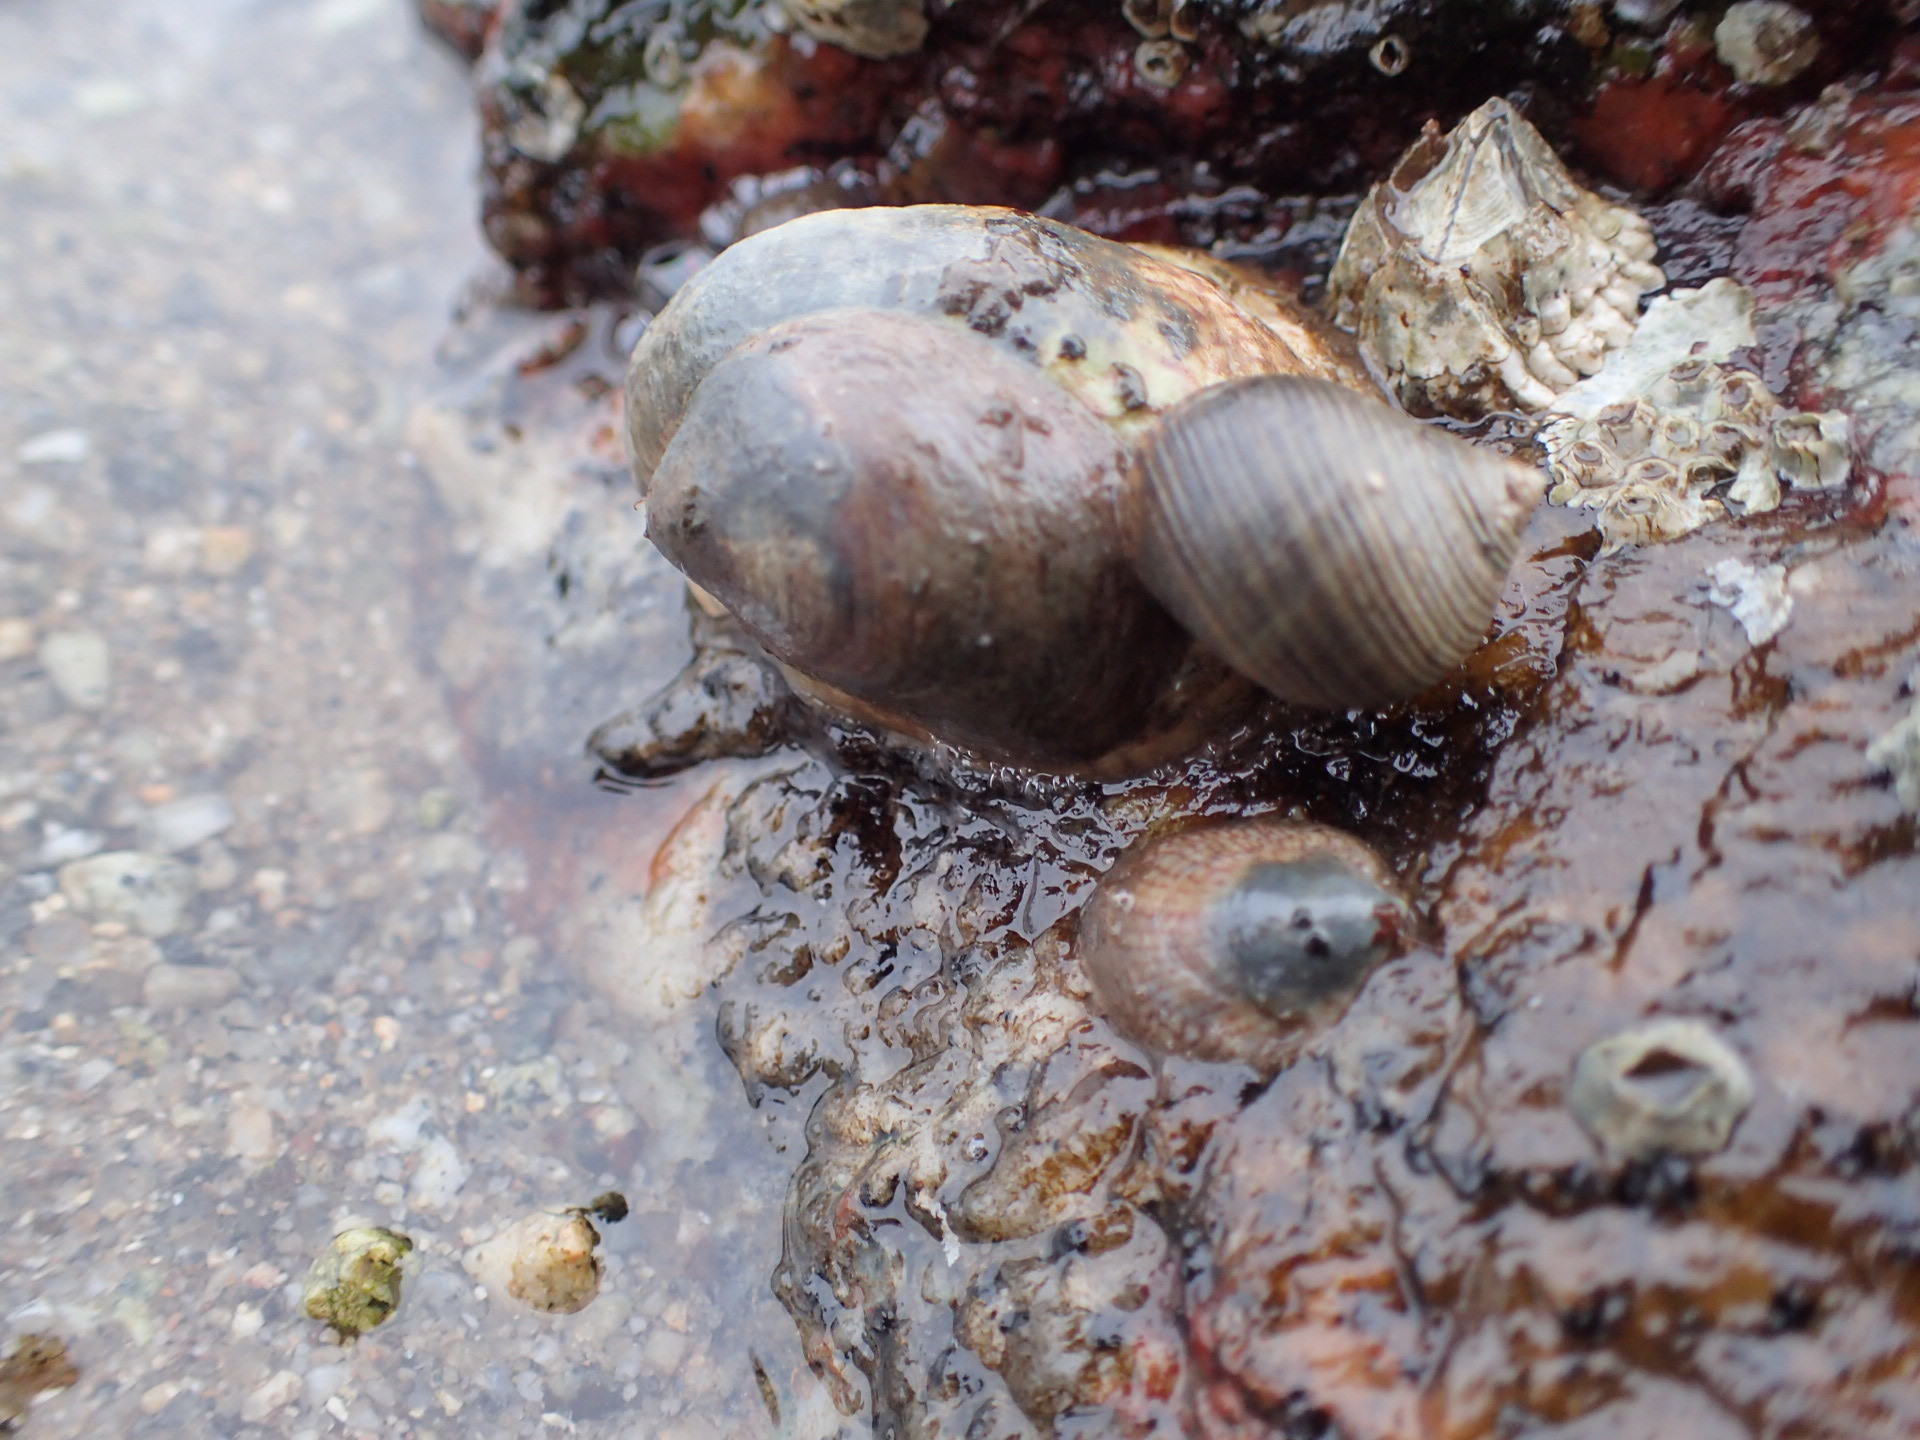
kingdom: Animalia
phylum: Mollusca
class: Gastropoda
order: Littorinimorpha
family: Calyptraeidae
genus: Crepidula
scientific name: Crepidula fornicata
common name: Slipper limpet
